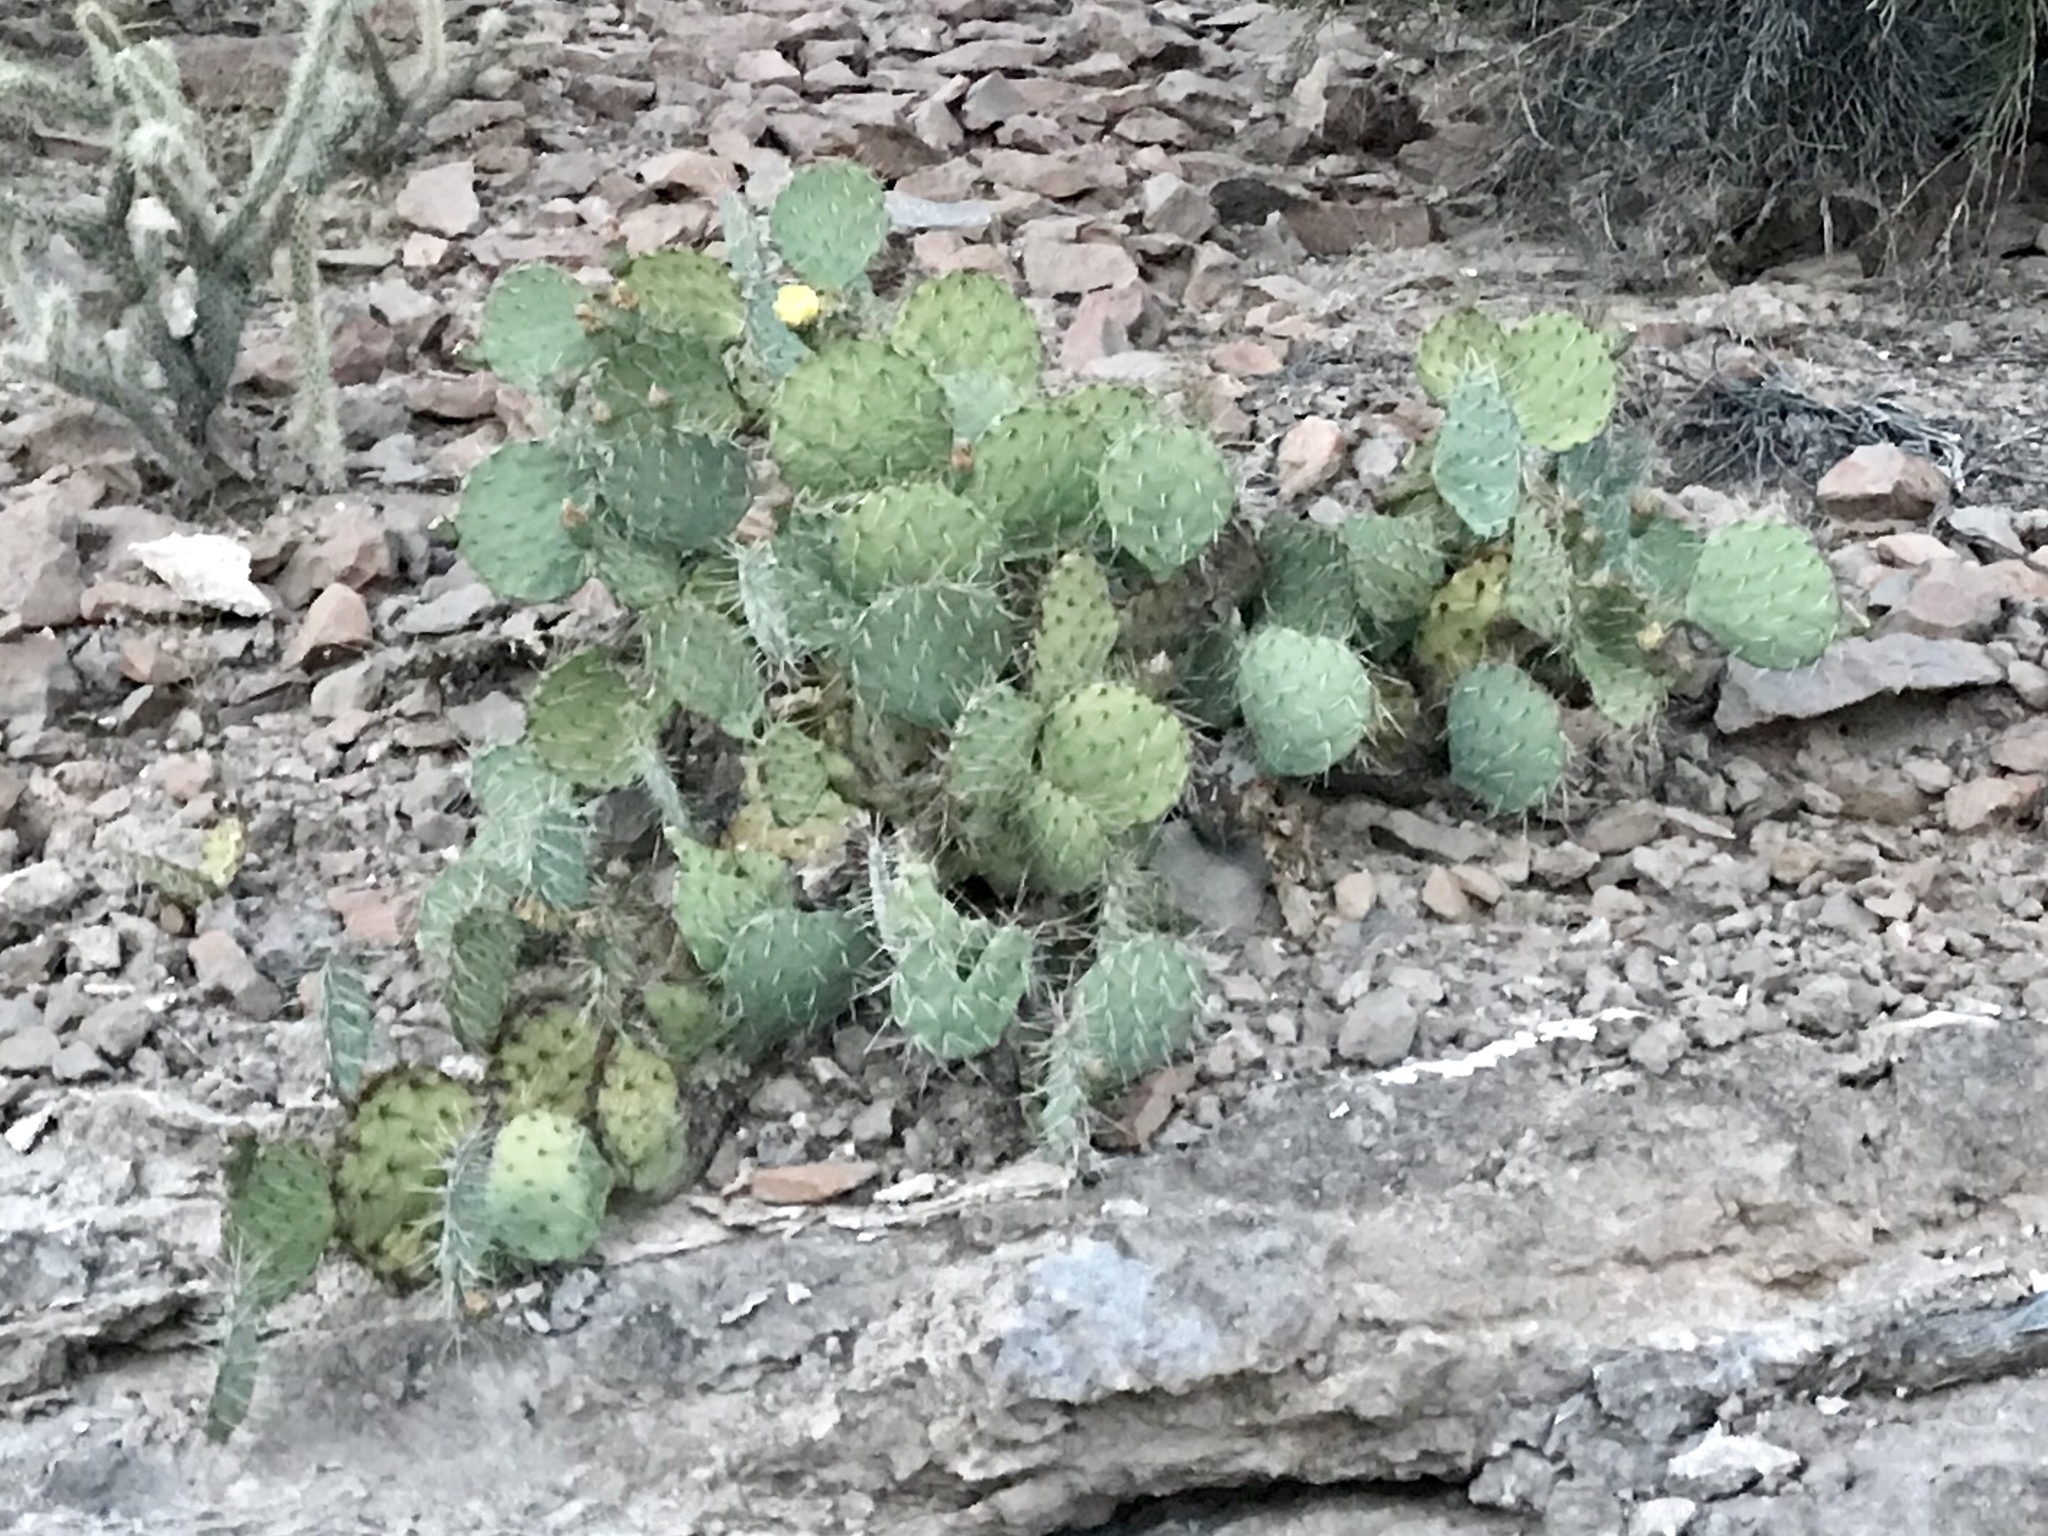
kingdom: Plantae
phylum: Tracheophyta
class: Magnoliopsida
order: Caryophyllales
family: Cactaceae
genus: Opuntia
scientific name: Opuntia phaeacantha
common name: New mexico prickly-pear
